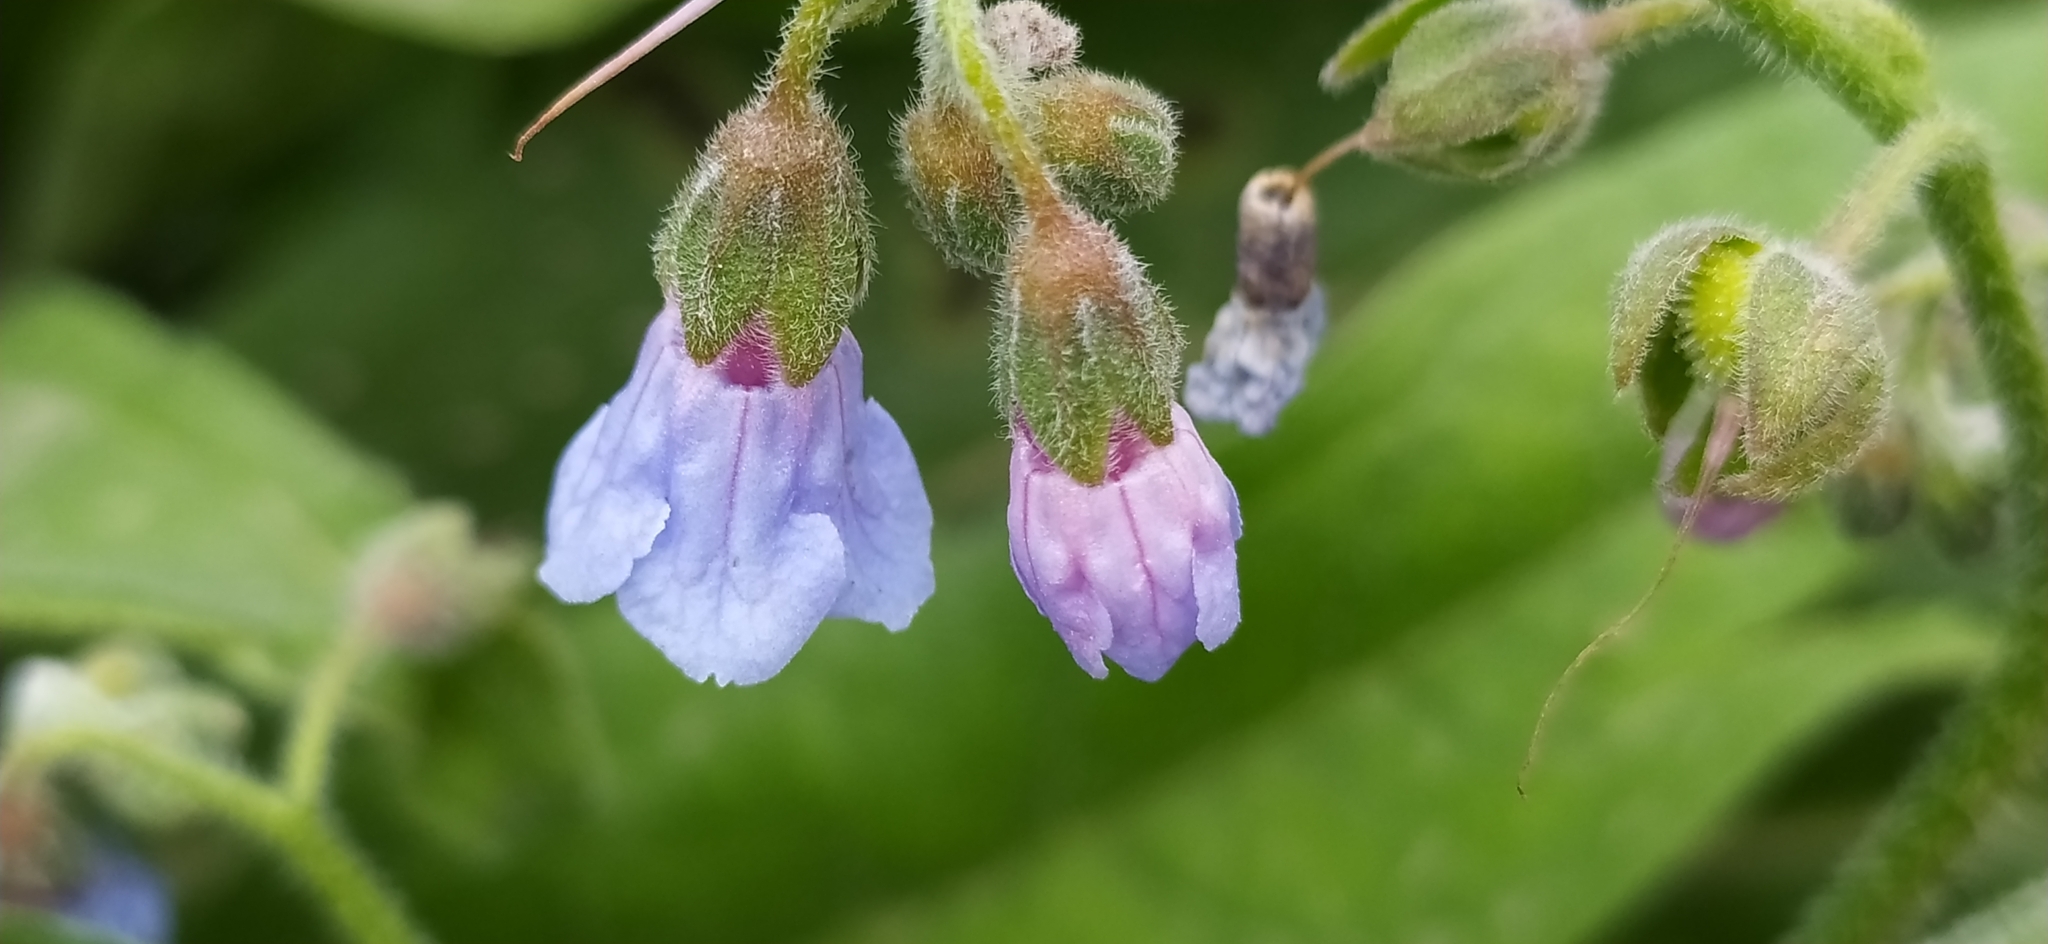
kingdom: Plantae
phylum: Tracheophyta
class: Magnoliopsida
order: Boraginales
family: Boraginaceae
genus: Lindelofia
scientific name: Lindelofia anchusoides
